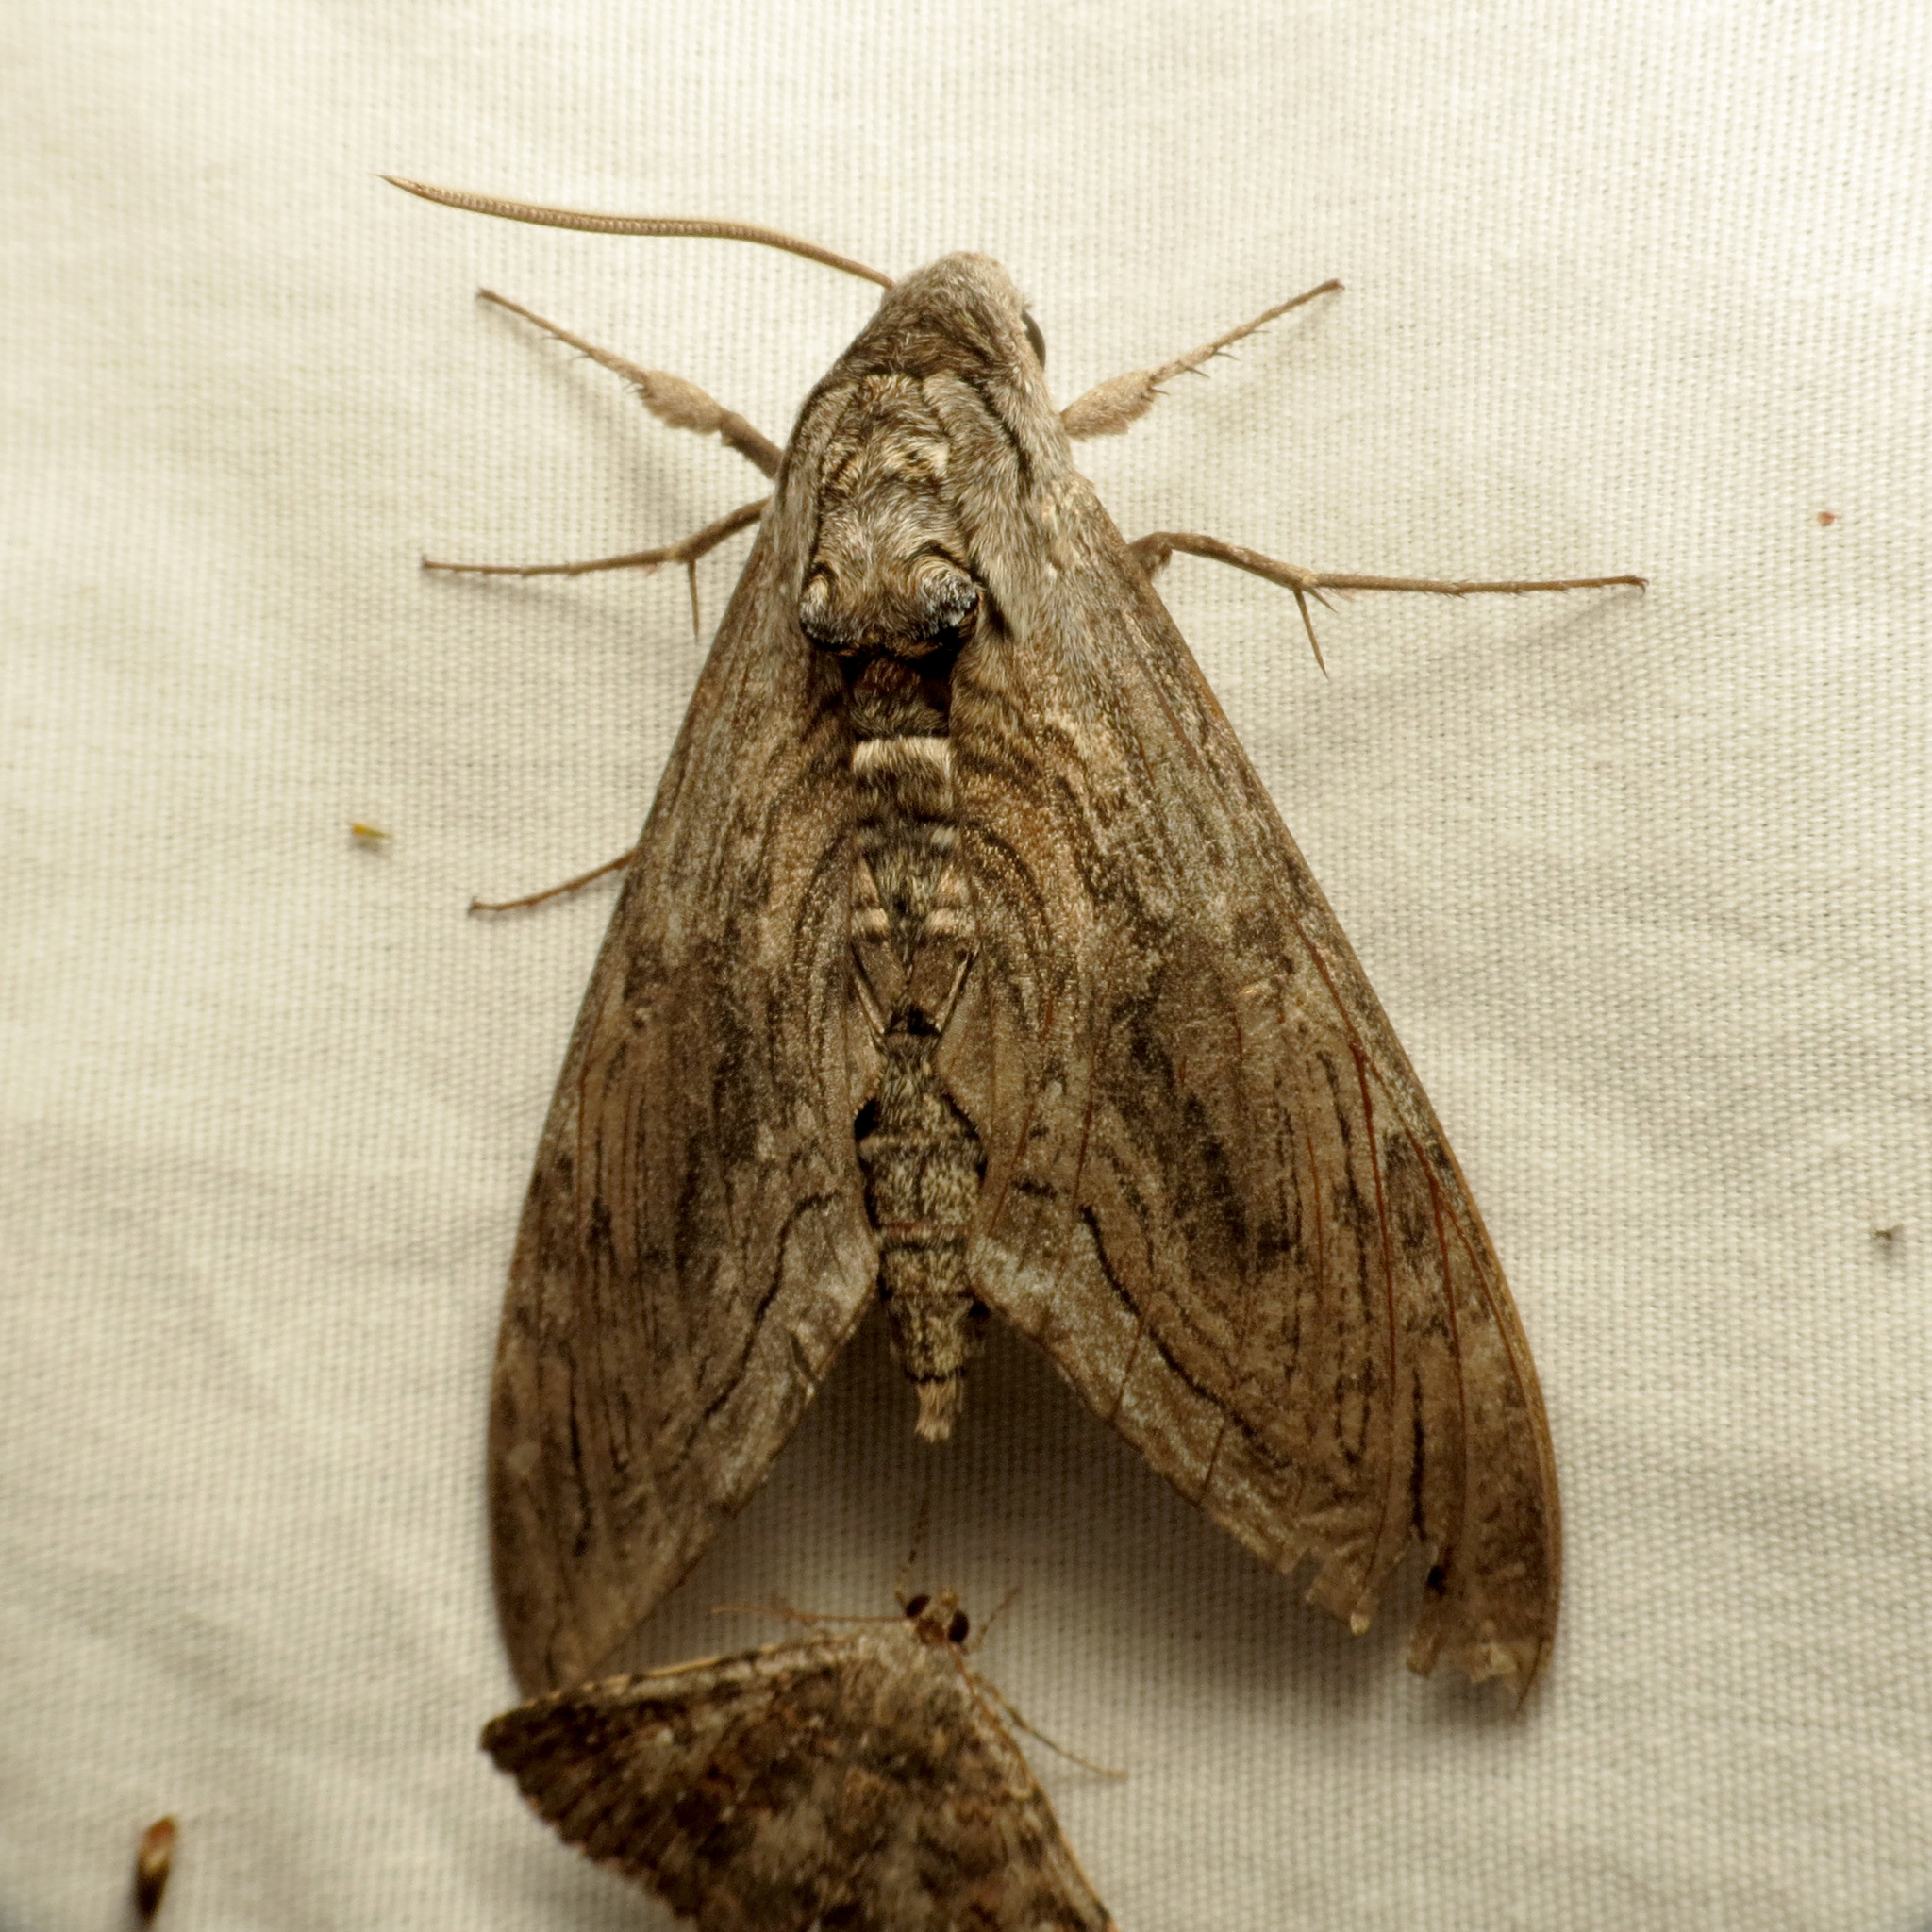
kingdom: Animalia
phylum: Arthropoda
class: Insecta
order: Lepidoptera
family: Sphingidae
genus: Manduca
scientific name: Manduca quinquemaculatus
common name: Five-spotted hawk-moth
